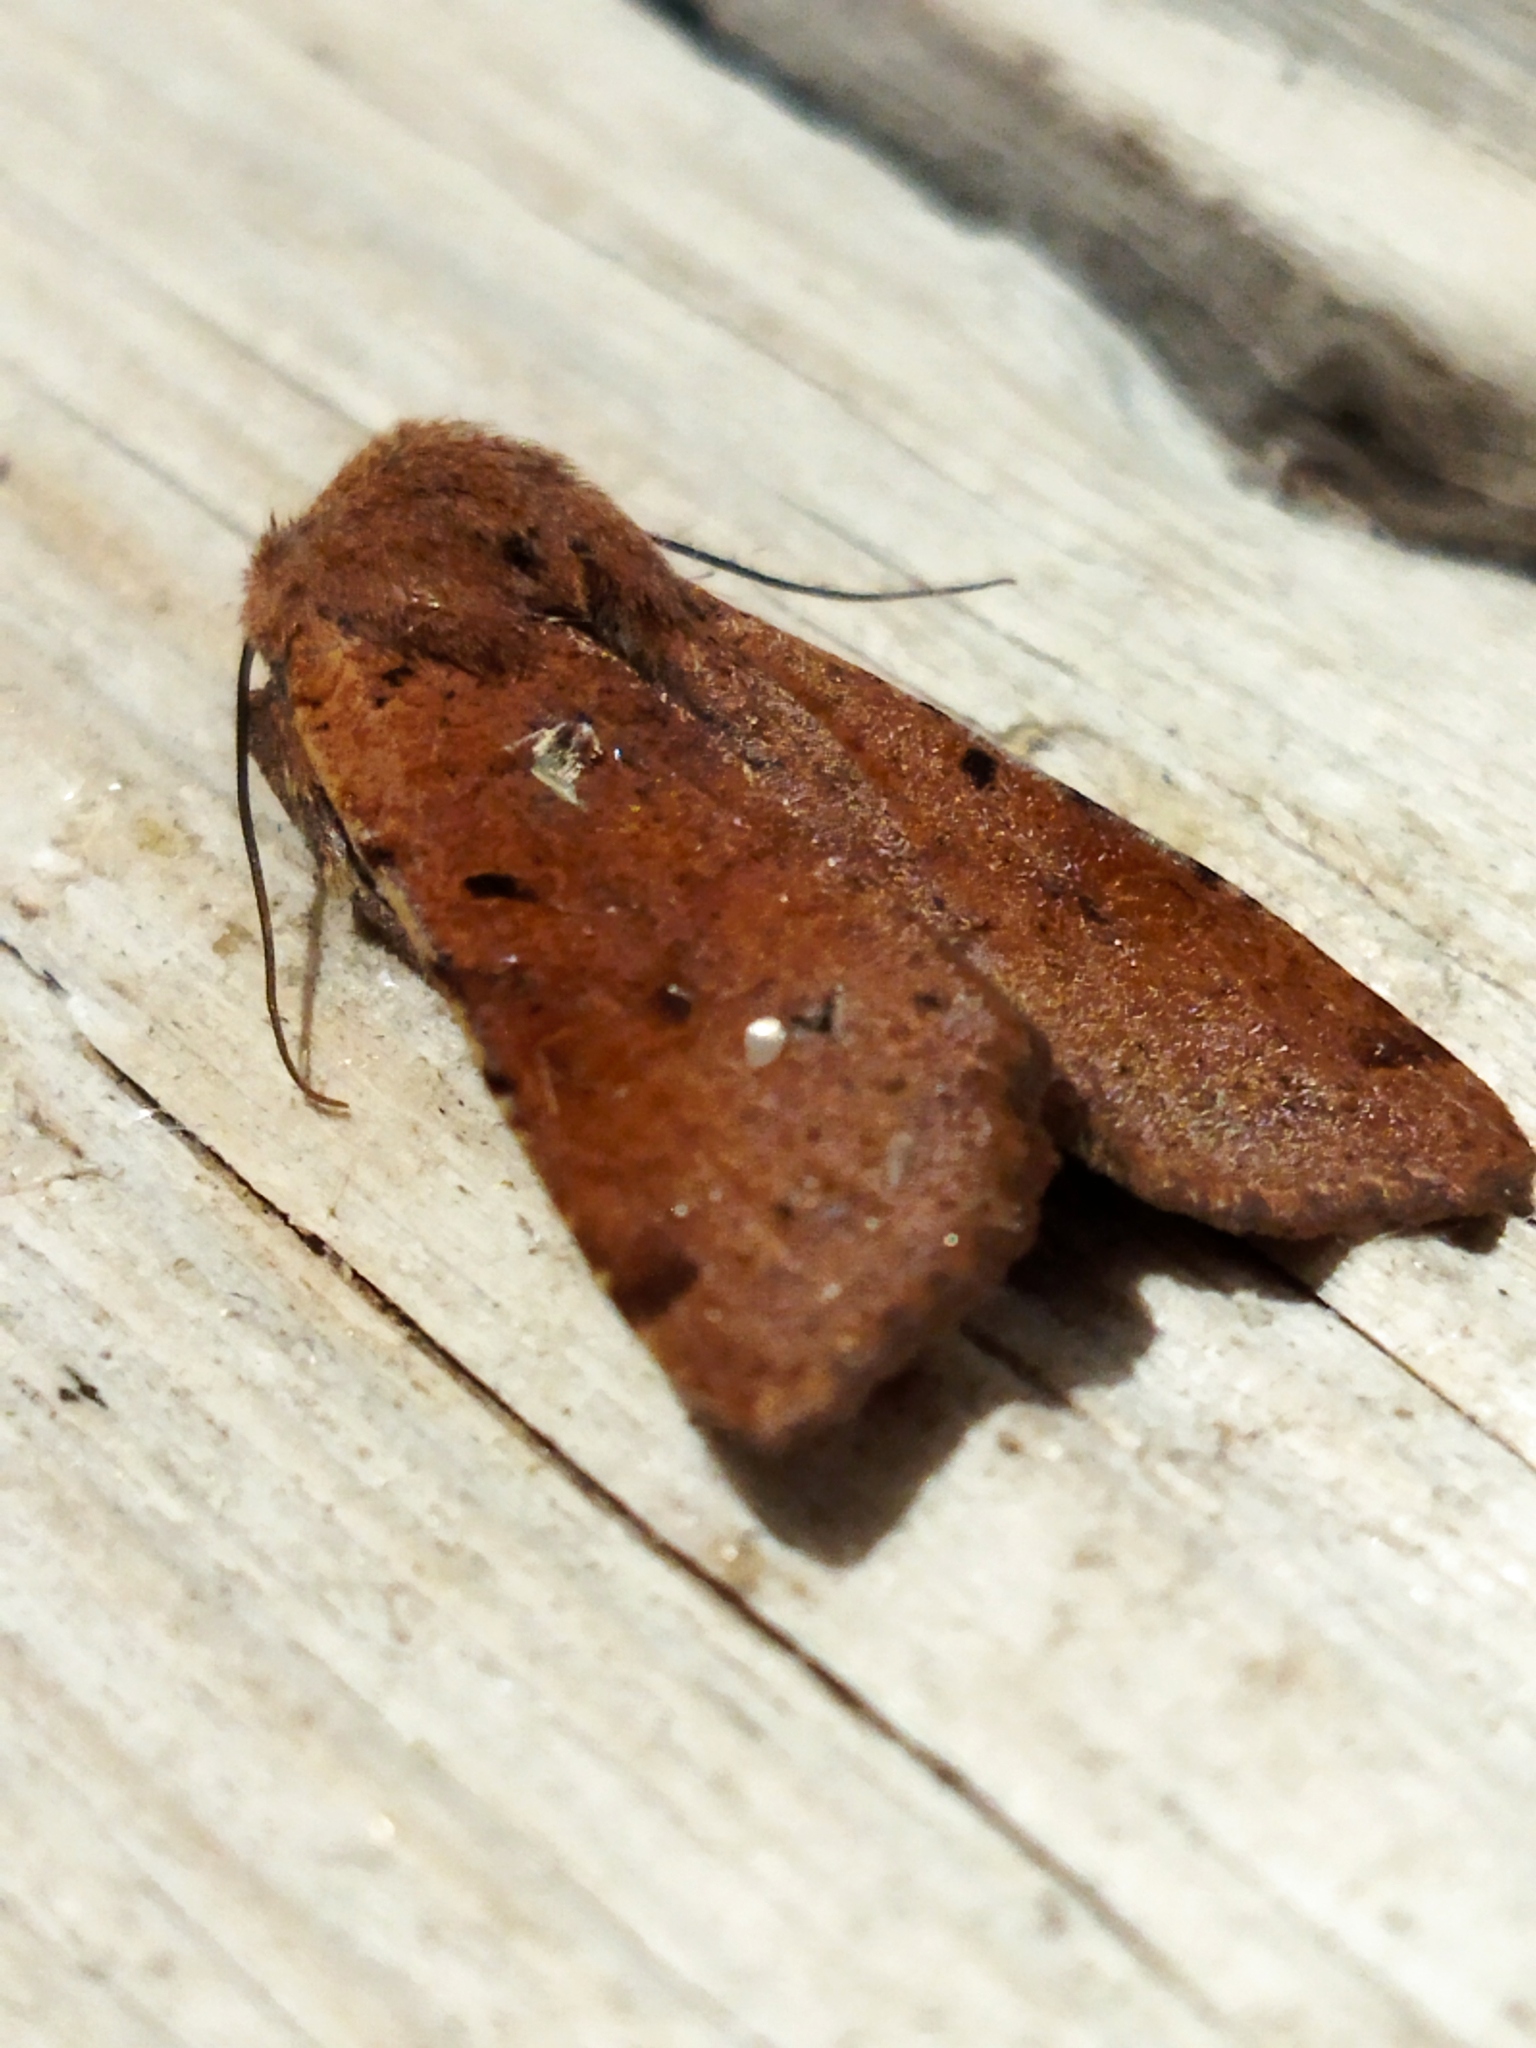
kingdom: Animalia
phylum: Arthropoda
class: Insecta
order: Lepidoptera
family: Noctuidae
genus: Agrochola
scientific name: Agrochola lychnidis
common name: Beaded chestnut
